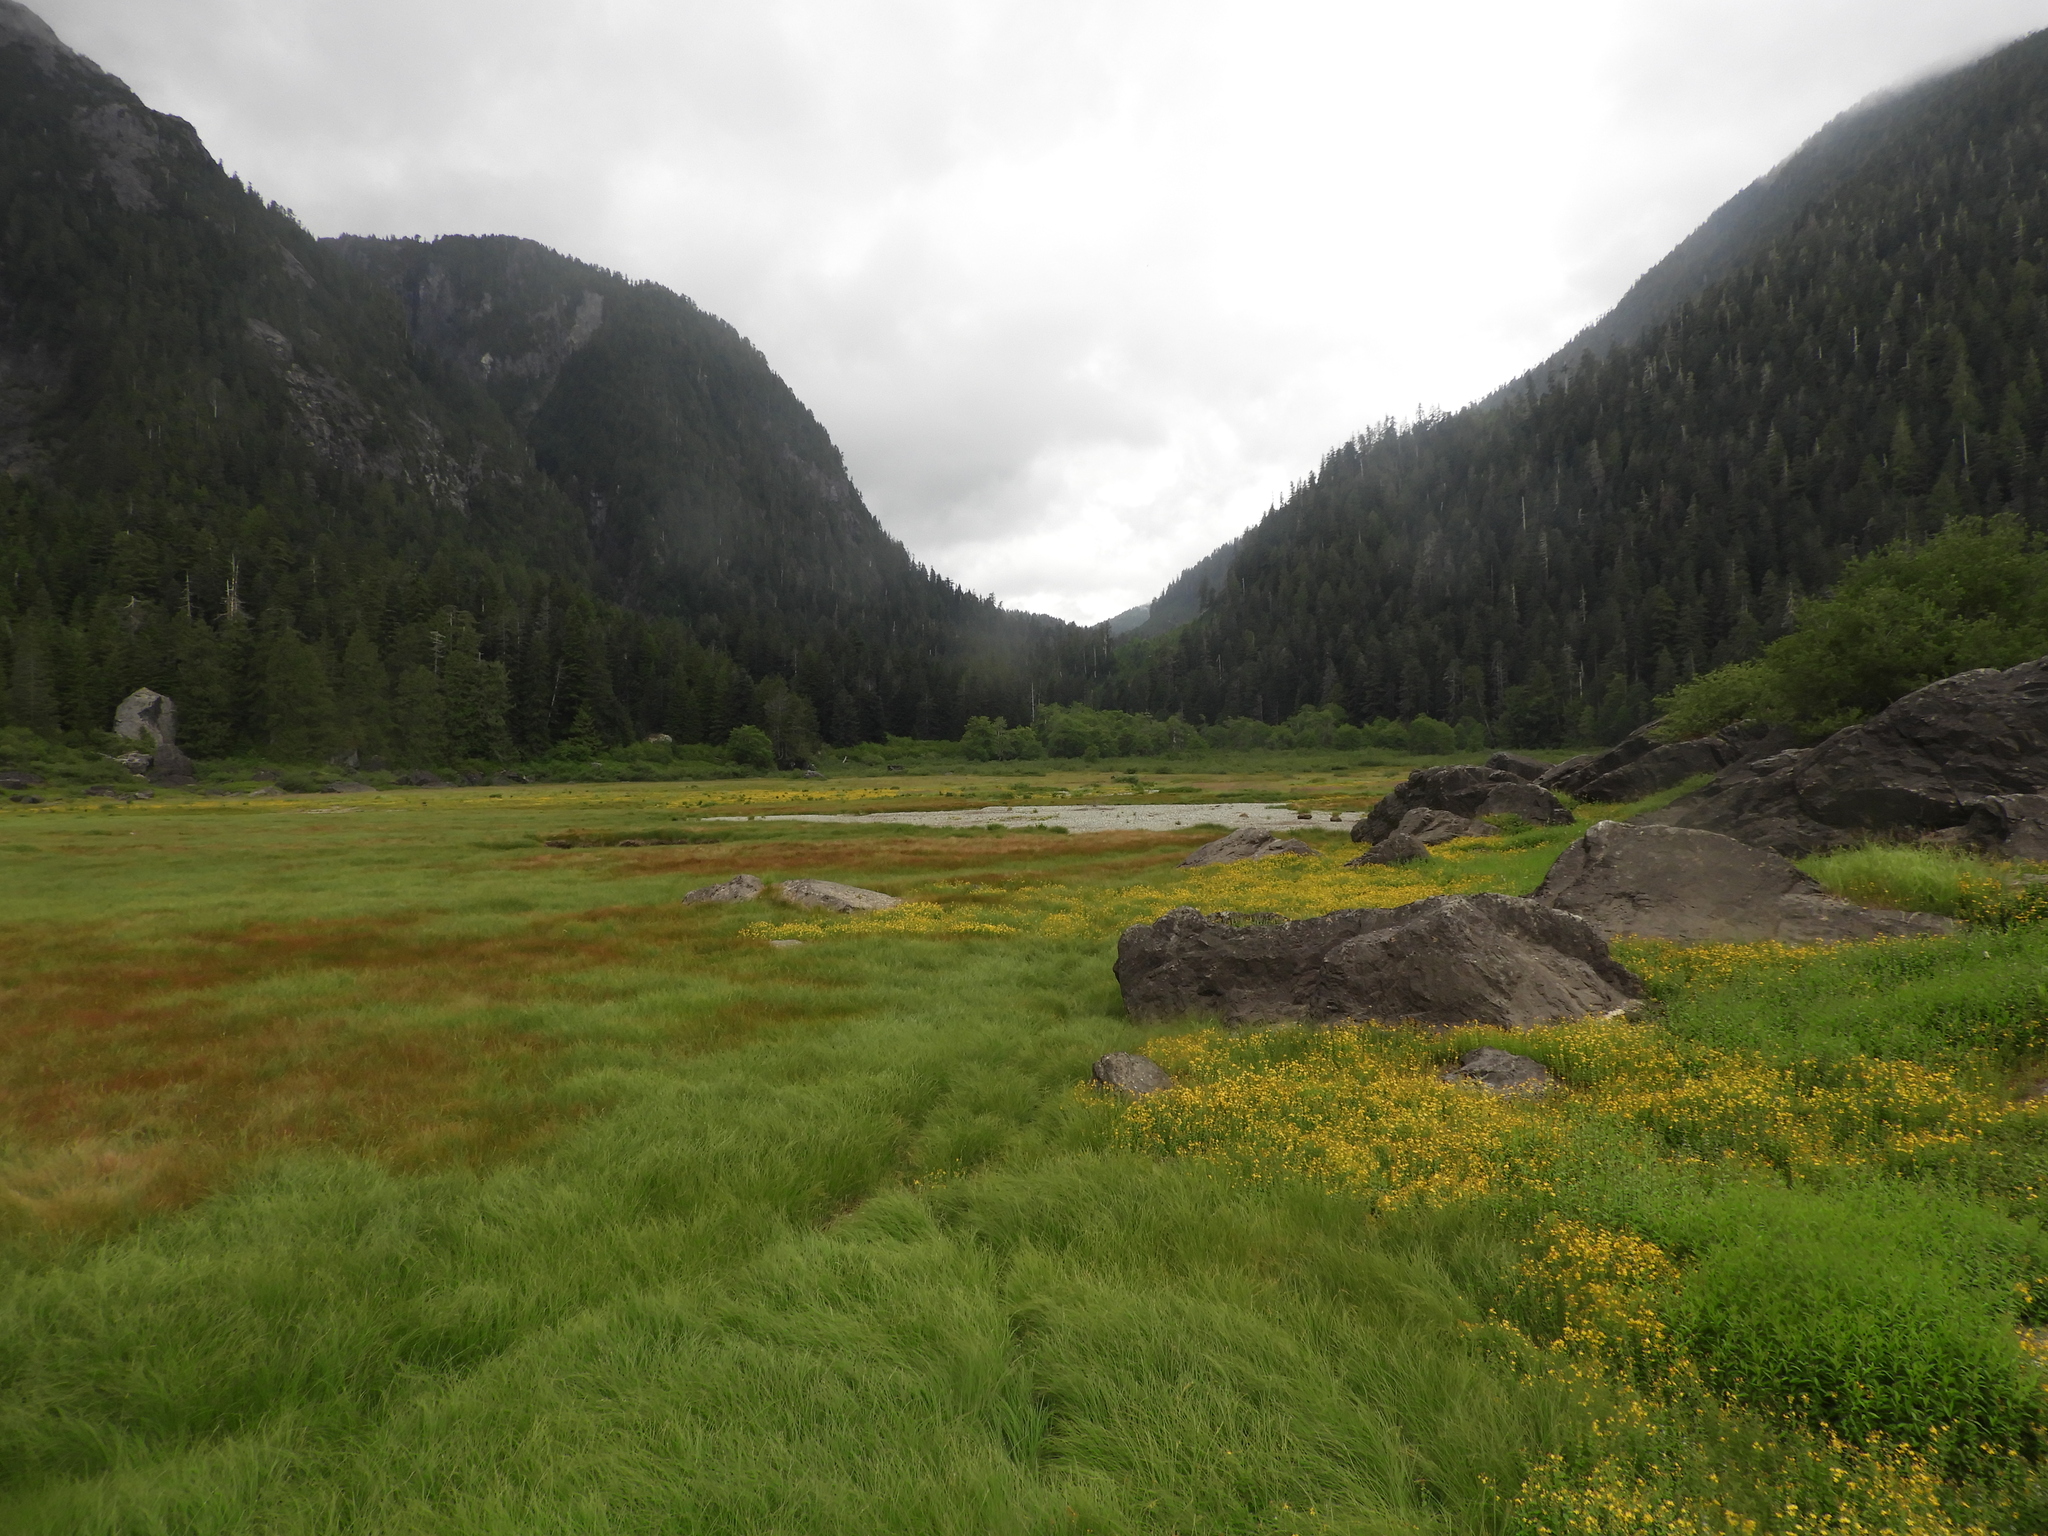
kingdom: Plantae
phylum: Tracheophyta
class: Magnoliopsida
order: Malpighiales
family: Hypericaceae
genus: Hypericum
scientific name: Hypericum scouleri
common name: Scouler's st. john's-wort
